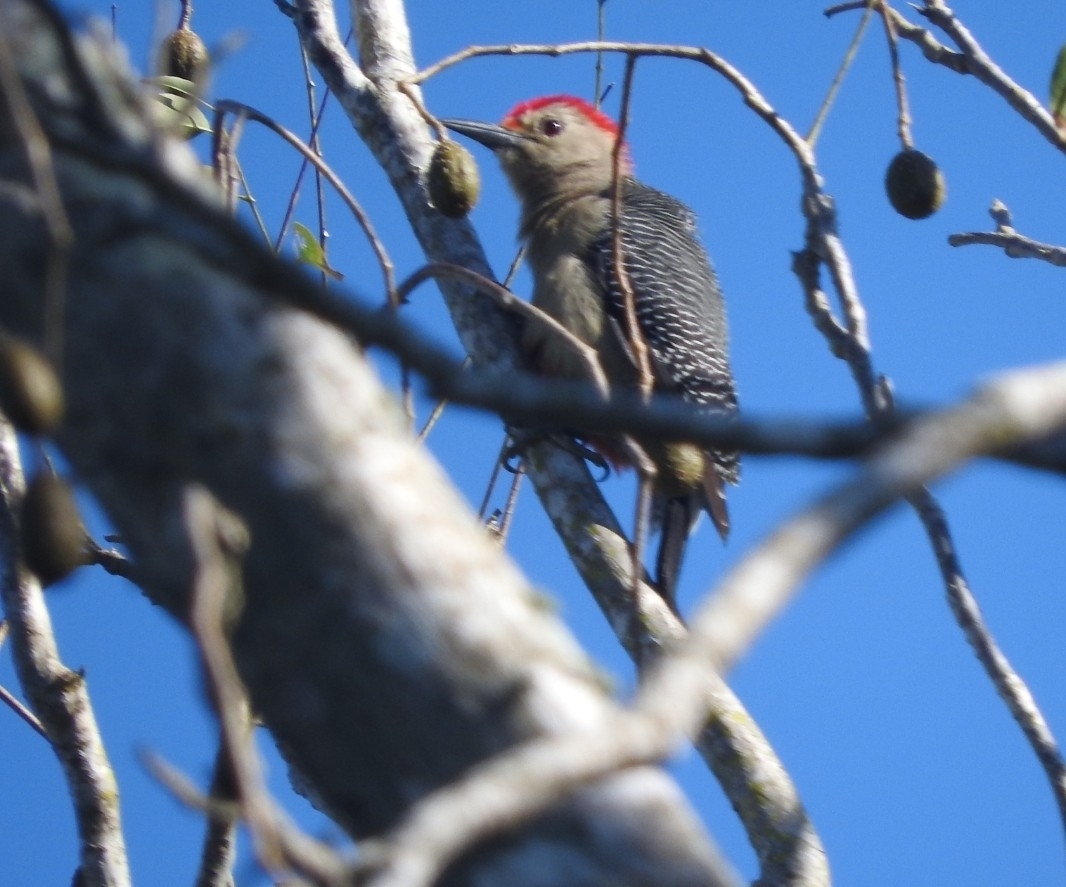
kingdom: Animalia
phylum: Chordata
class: Aves
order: Piciformes
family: Picidae
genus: Melanerpes
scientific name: Melanerpes aurifrons
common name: Golden-fronted woodpecker
